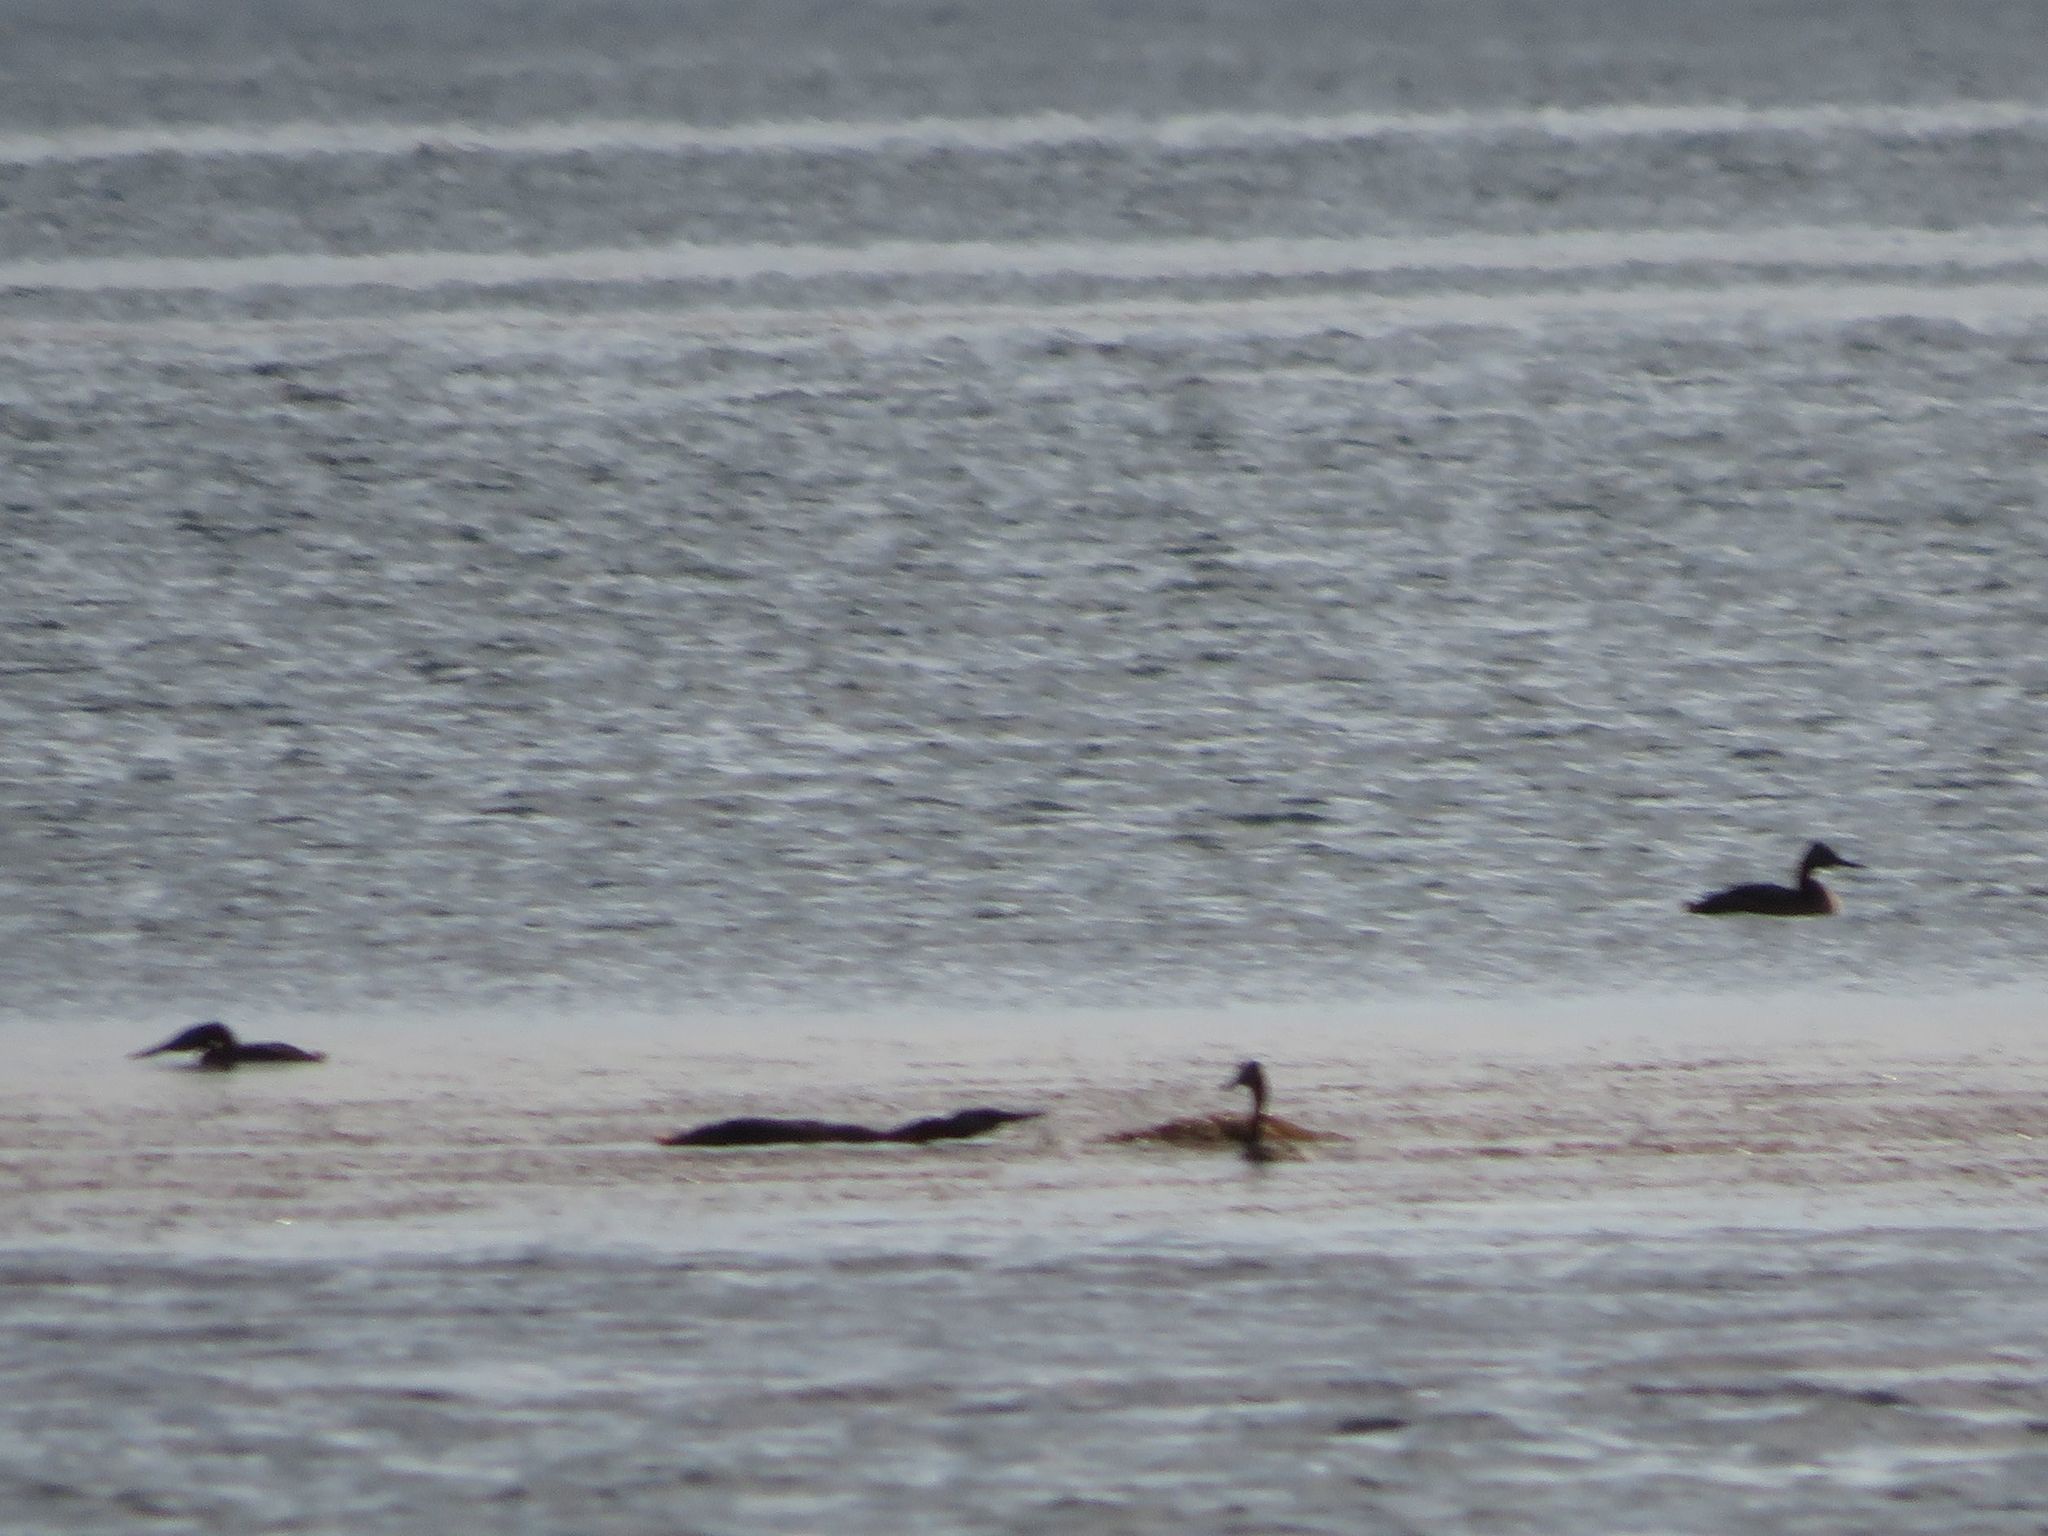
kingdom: Animalia
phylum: Chordata
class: Aves
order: Podicipediformes
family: Podicipedidae
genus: Podiceps
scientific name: Podiceps major
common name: Great grebe
